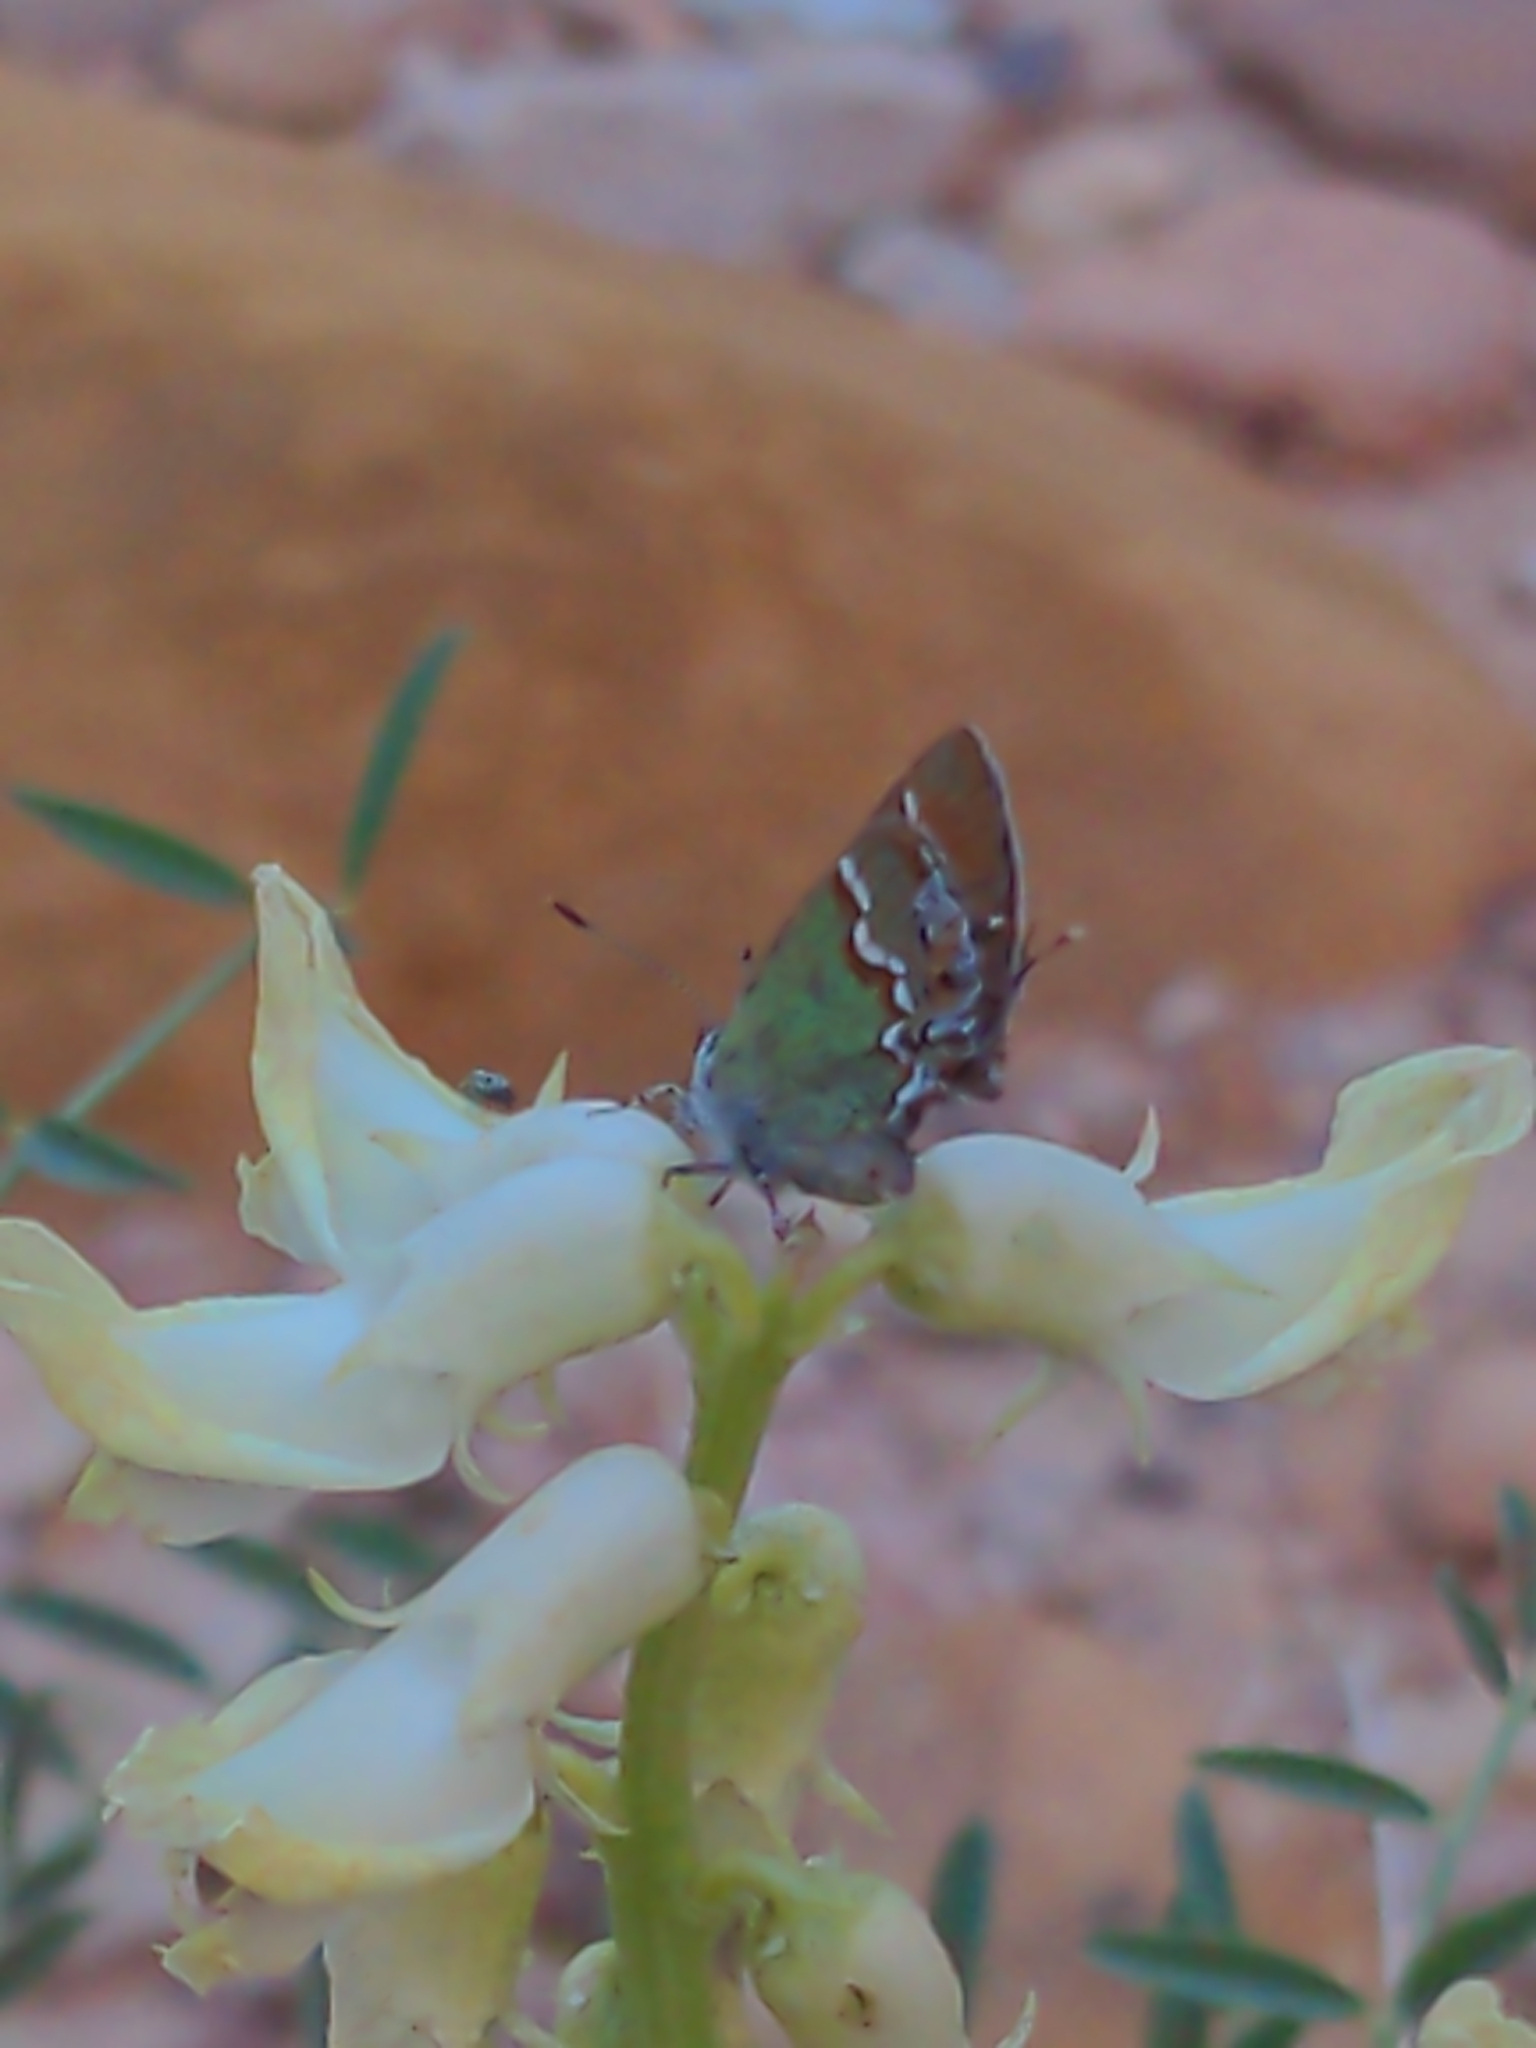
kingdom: Animalia
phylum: Arthropoda
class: Insecta
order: Lepidoptera
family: Lycaenidae
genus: Mitoura
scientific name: Mitoura gryneus
